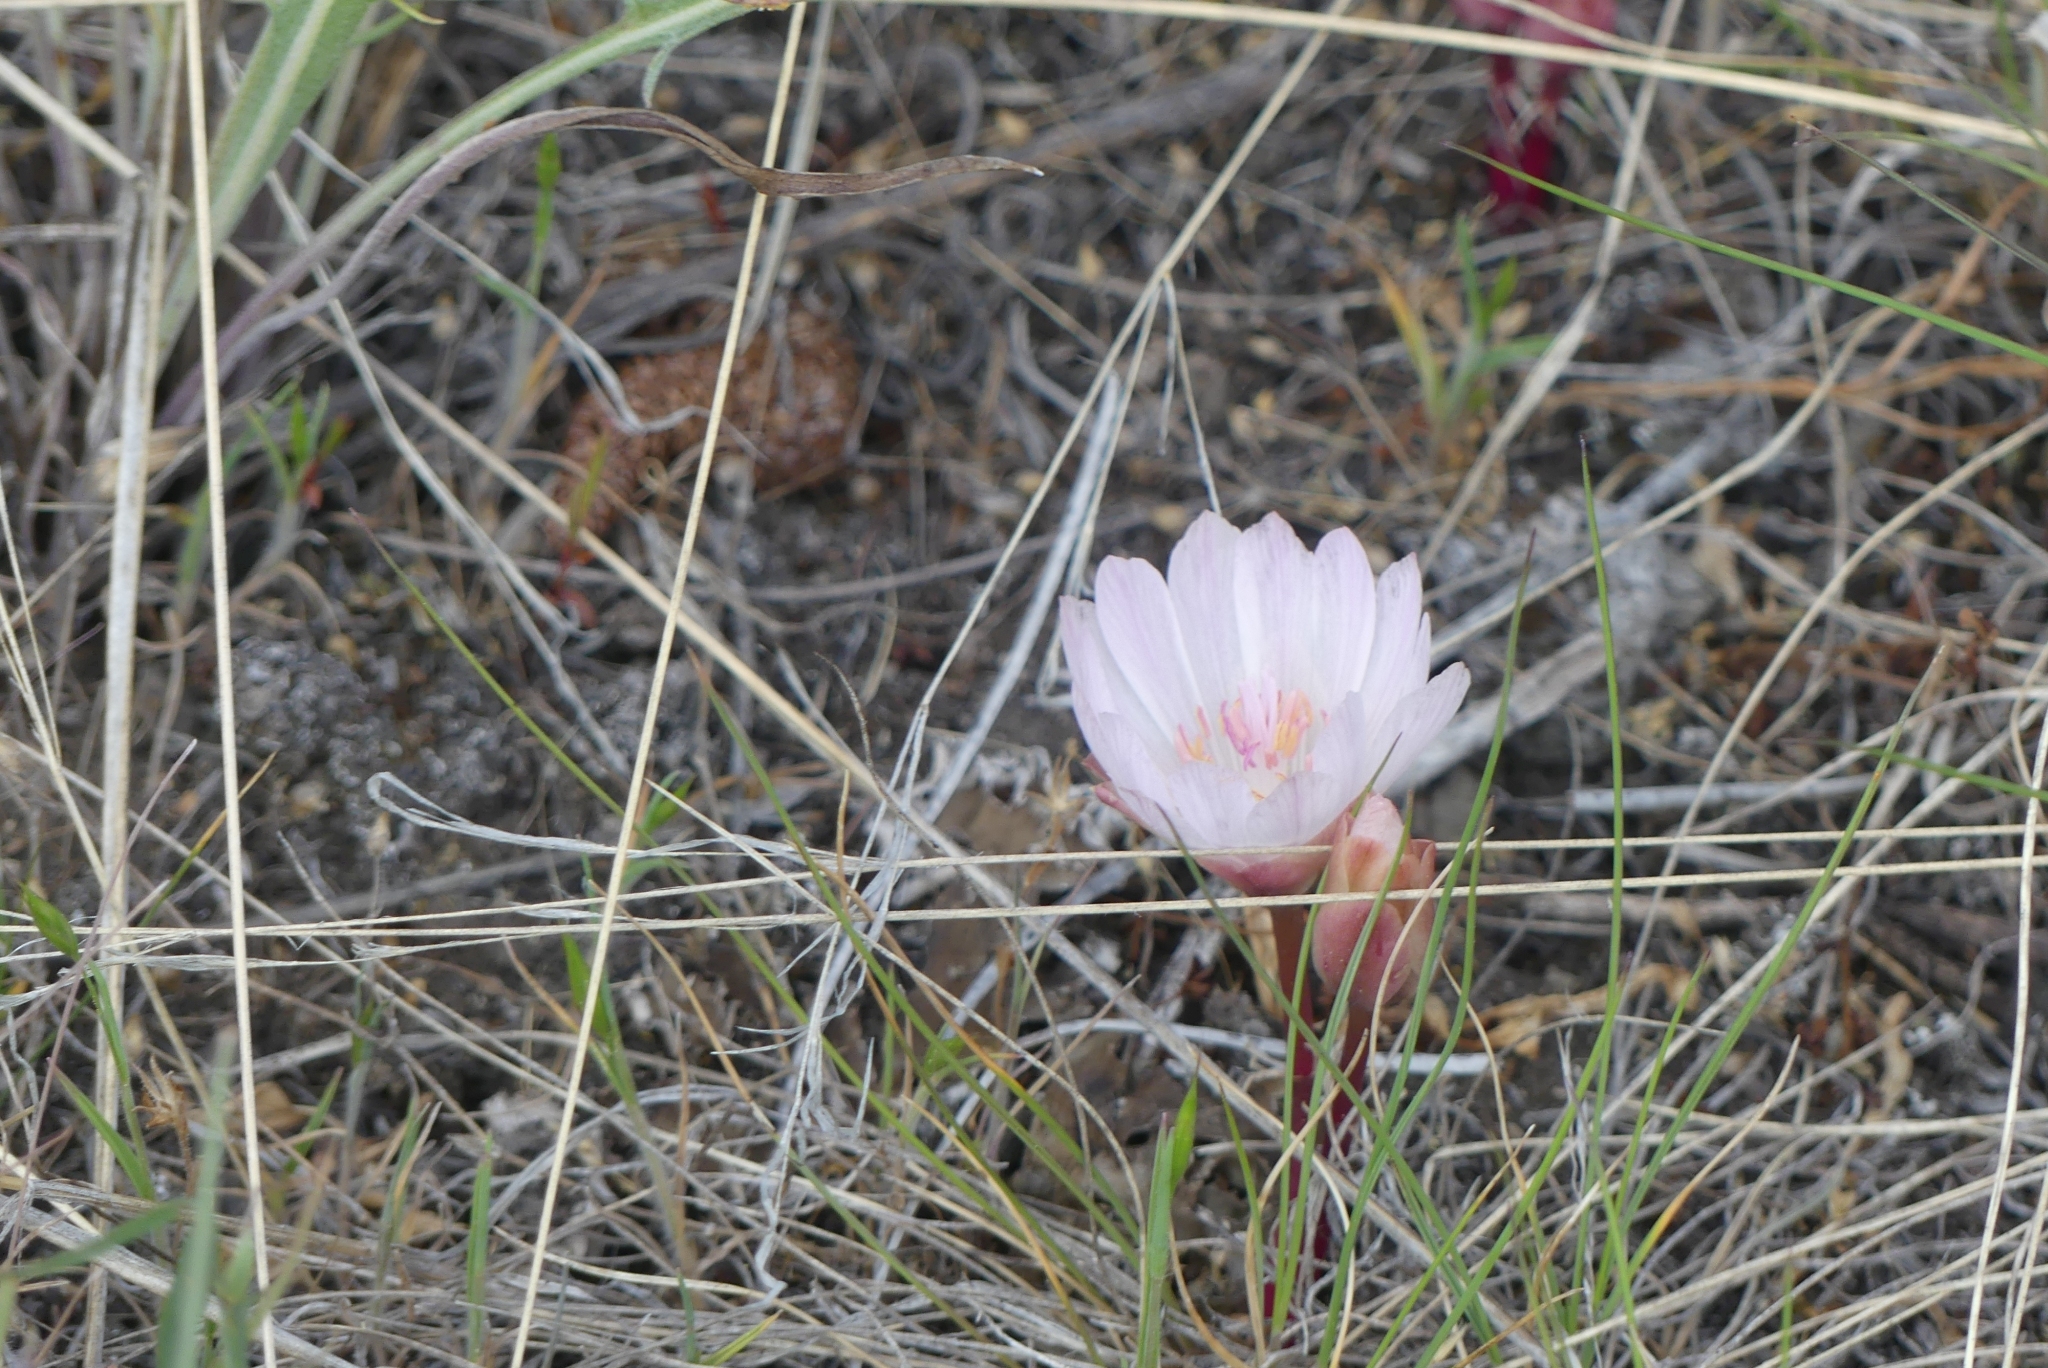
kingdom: Plantae
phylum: Tracheophyta
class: Magnoliopsida
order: Caryophyllales
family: Montiaceae
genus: Lewisia
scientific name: Lewisia rediviva
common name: Bitter-root
